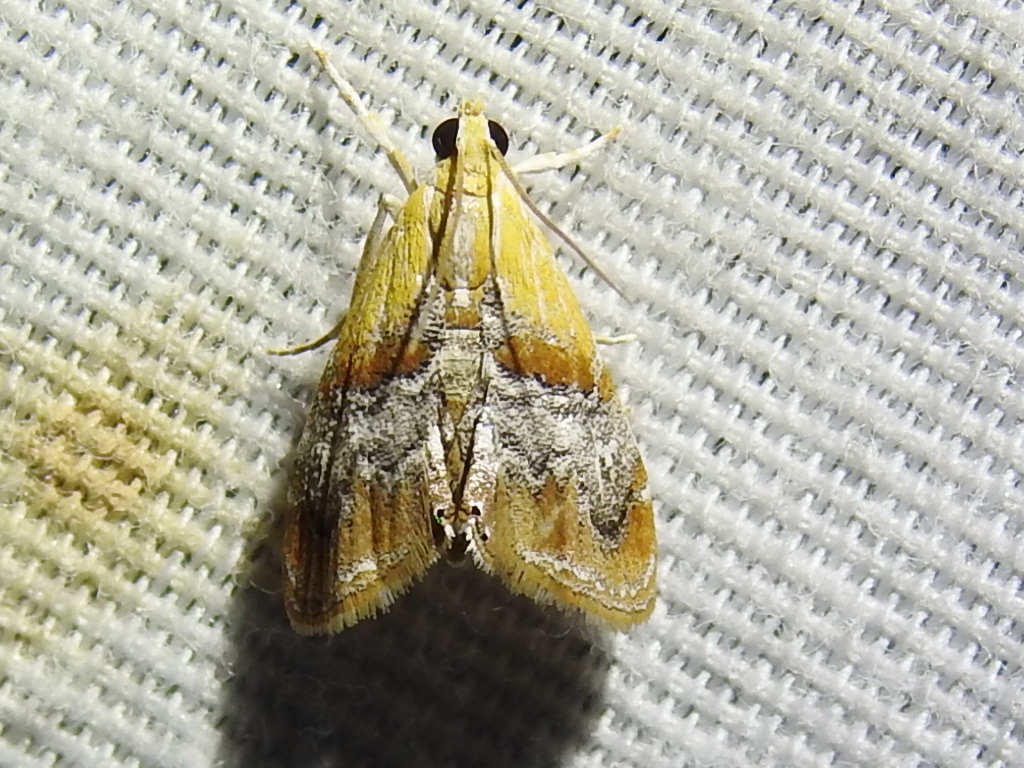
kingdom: Animalia
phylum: Arthropoda
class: Insecta
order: Lepidoptera
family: Crambidae
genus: Dicymolomia
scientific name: Dicymolomia julianalis
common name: Julia's dicymolomia moth
